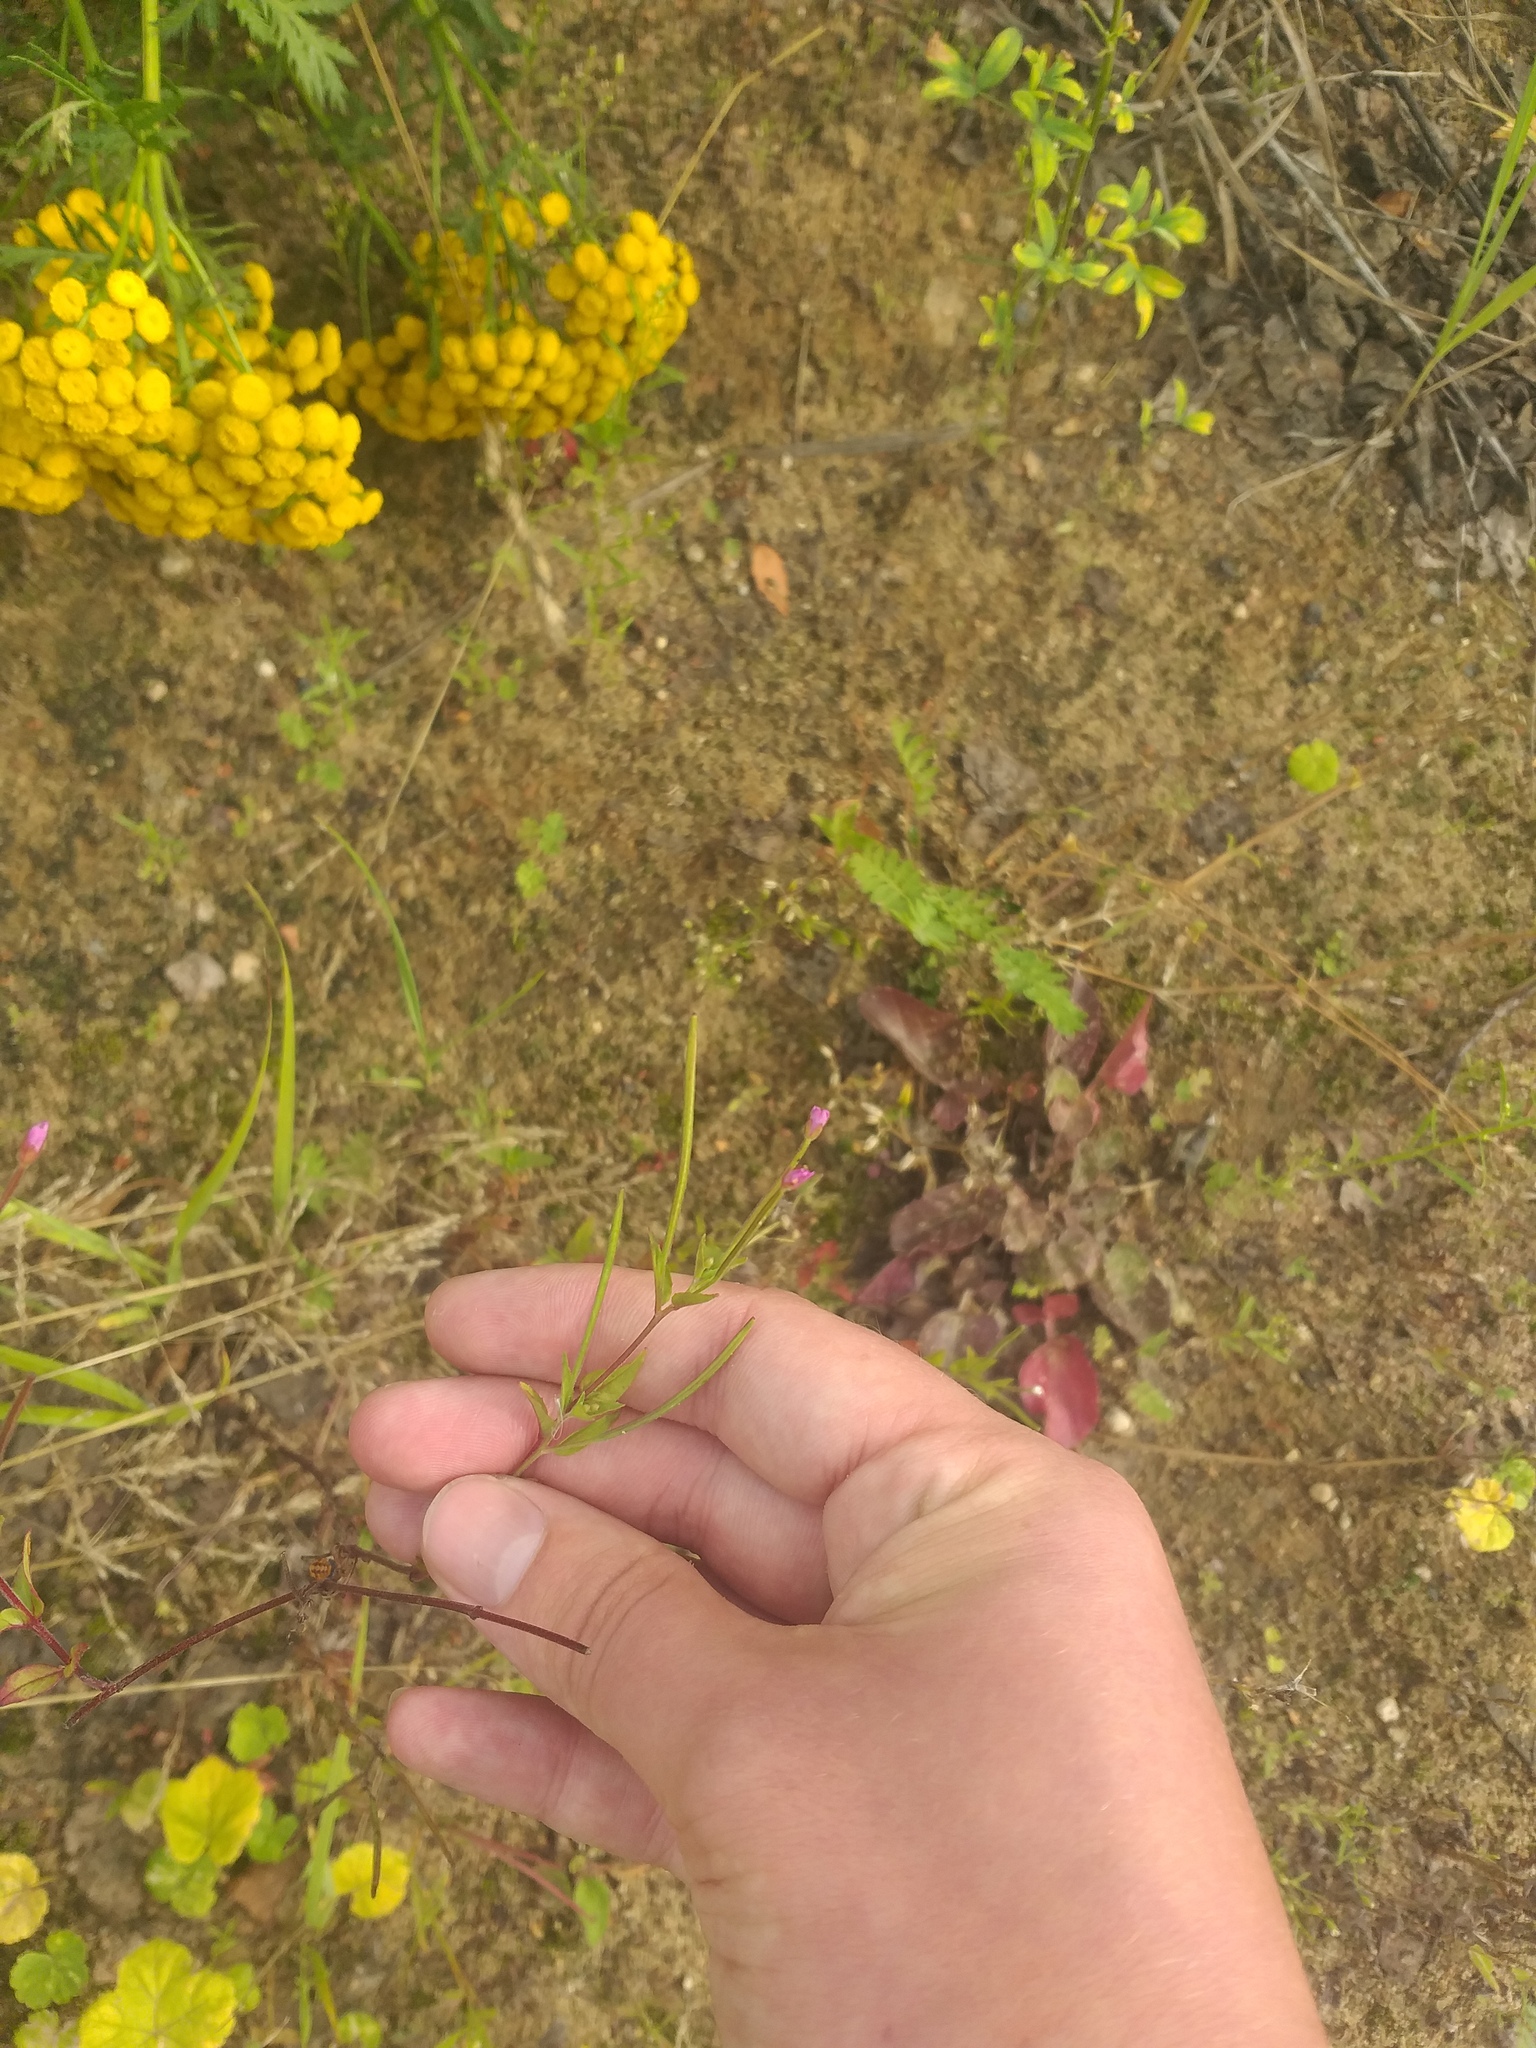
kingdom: Plantae
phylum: Tracheophyta
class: Magnoliopsida
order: Myrtales
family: Onagraceae
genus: Epilobium
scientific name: Epilobium ciliatum
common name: American willowherb
